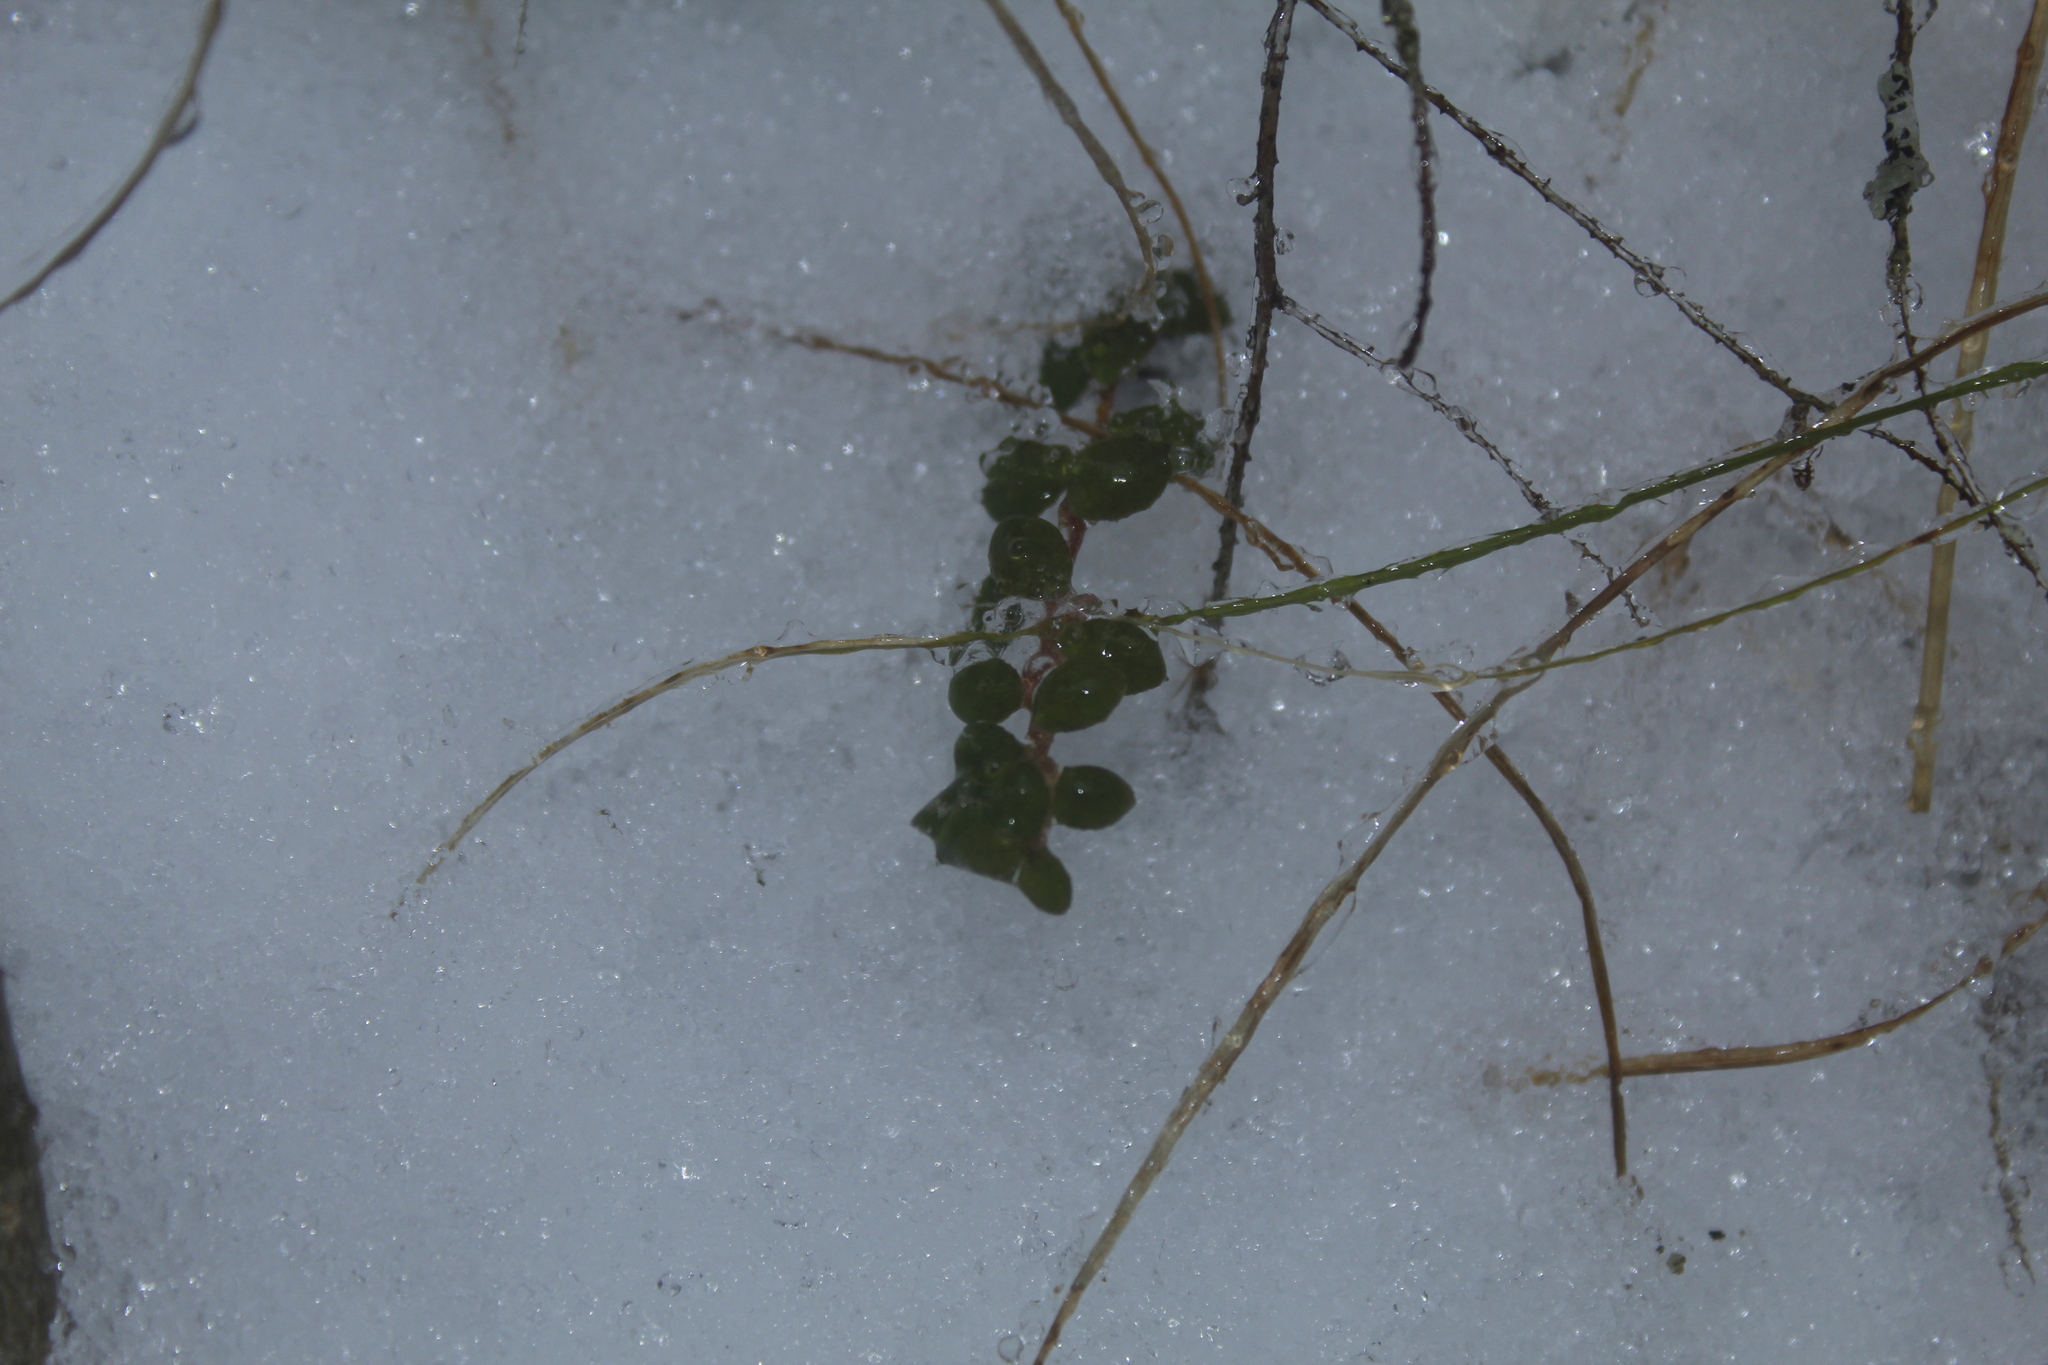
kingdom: Plantae
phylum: Tracheophyta
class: Magnoliopsida
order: Ericales
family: Ericaceae
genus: Gaultheria
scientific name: Gaultheria hispidula
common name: Cancer wintergreen
